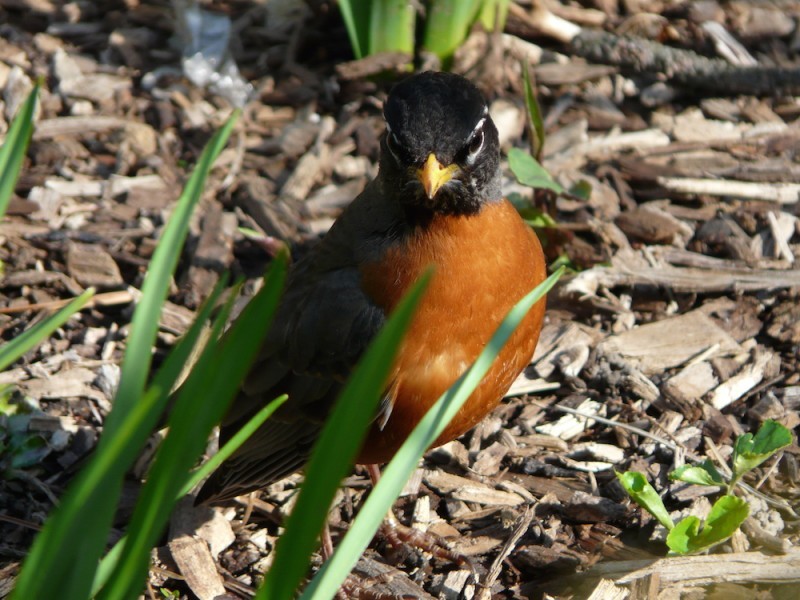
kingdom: Animalia
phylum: Chordata
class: Aves
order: Passeriformes
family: Turdidae
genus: Turdus
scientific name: Turdus migratorius
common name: American robin
